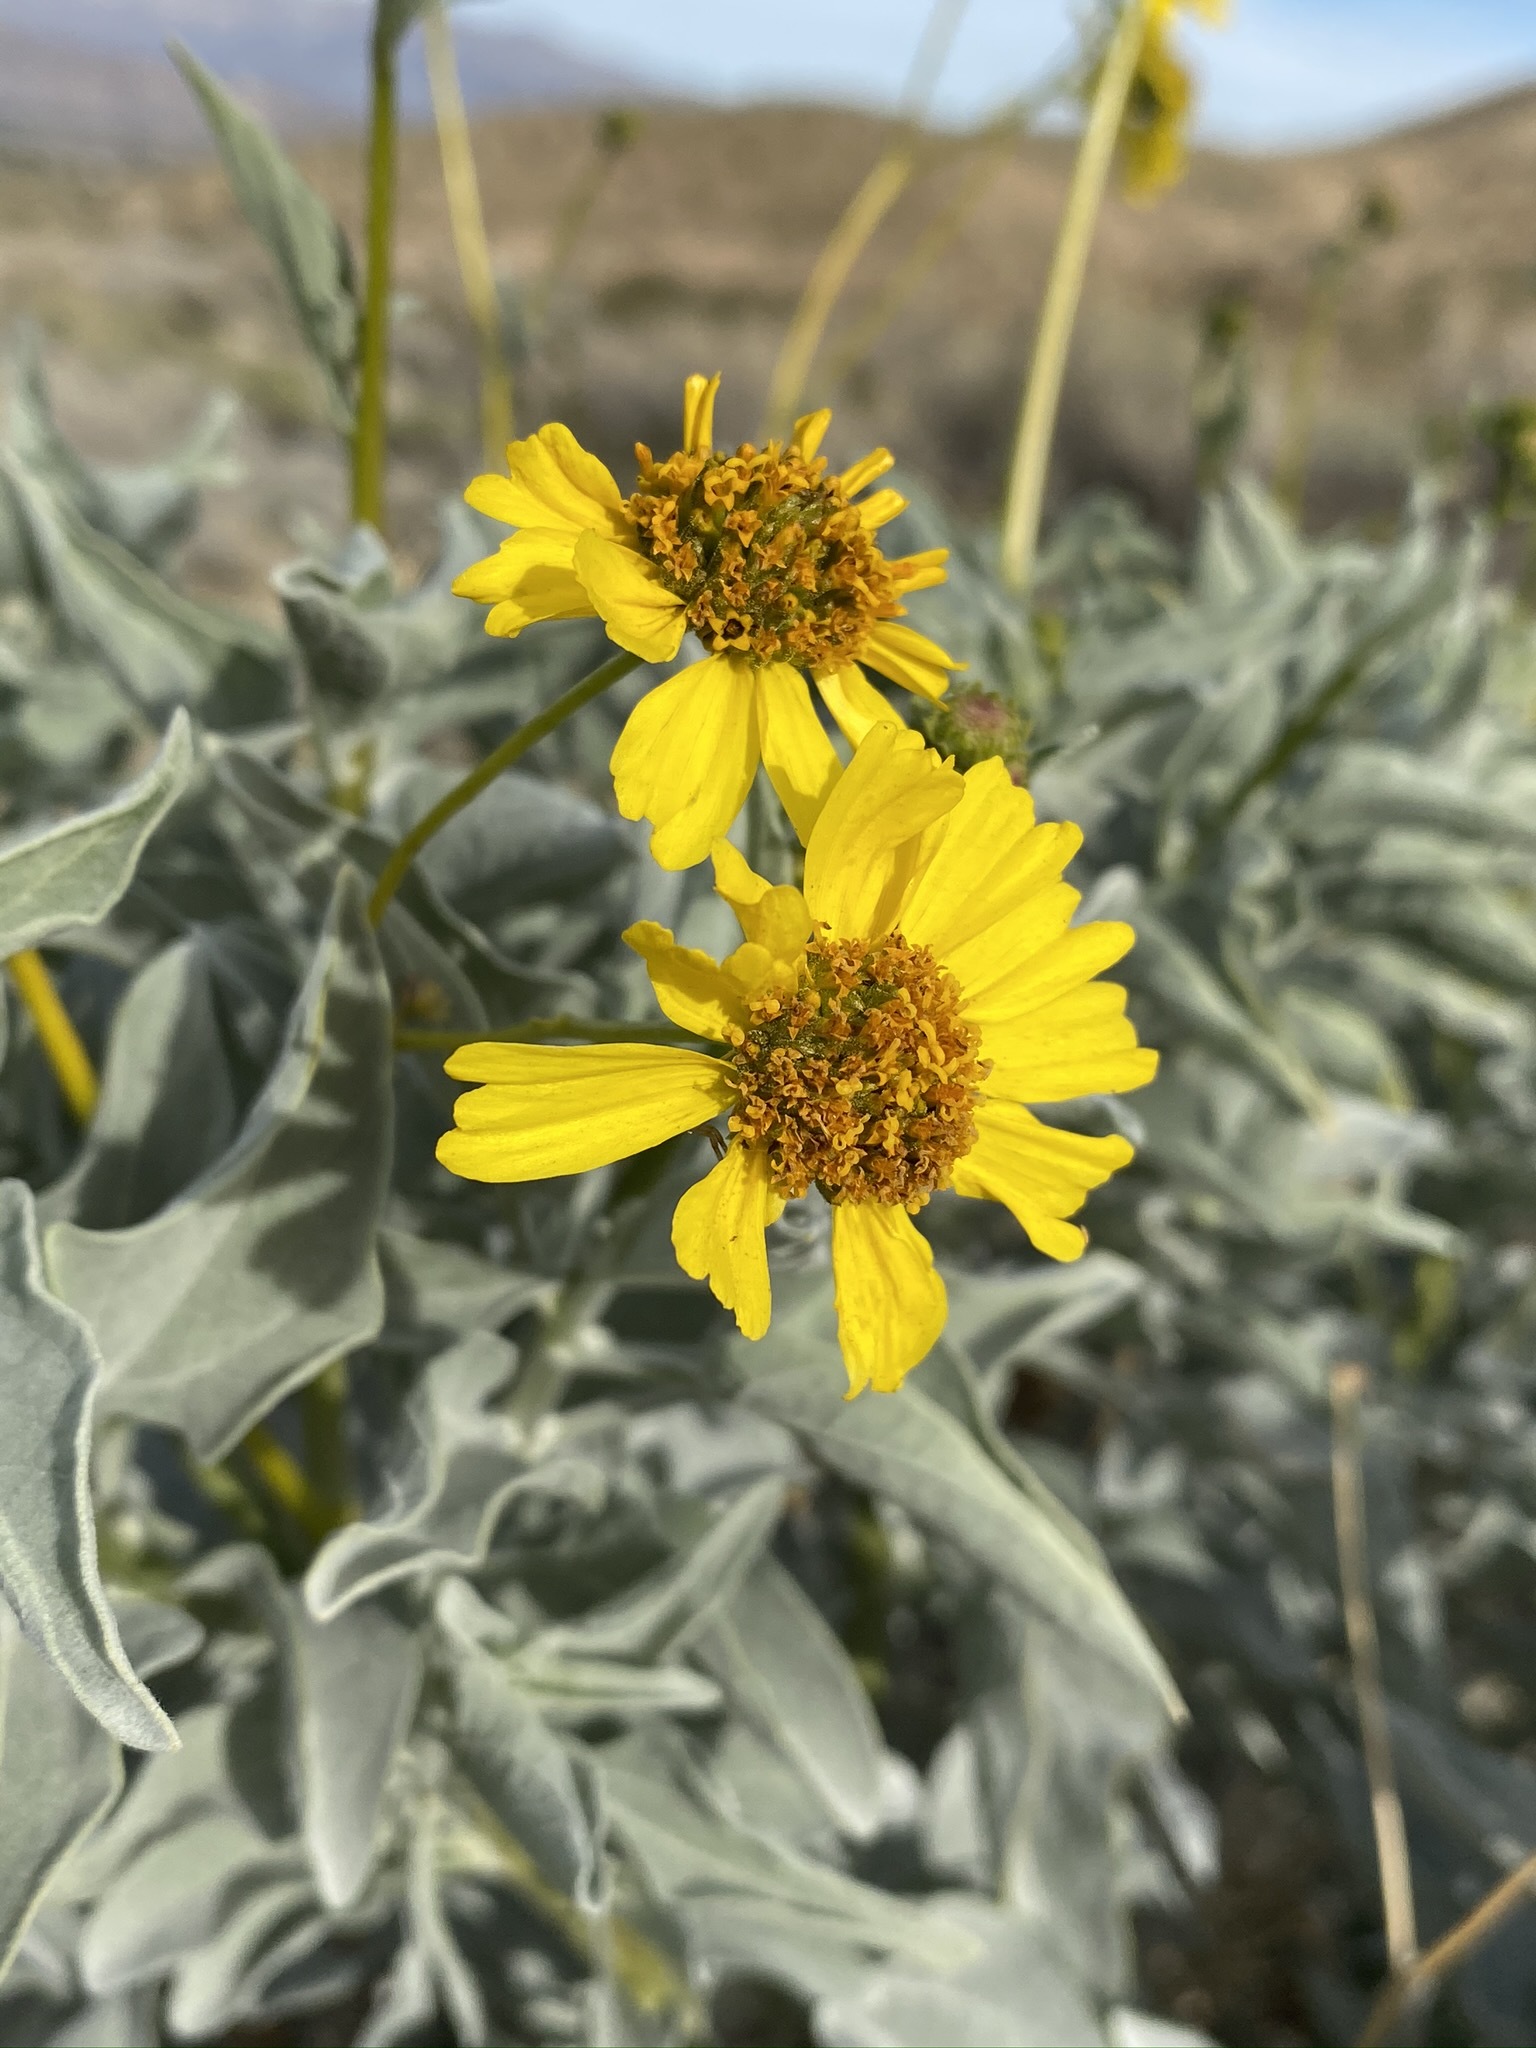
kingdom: Plantae
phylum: Tracheophyta
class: Magnoliopsida
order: Asterales
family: Asteraceae
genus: Encelia
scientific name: Encelia farinosa
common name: Brittlebush
